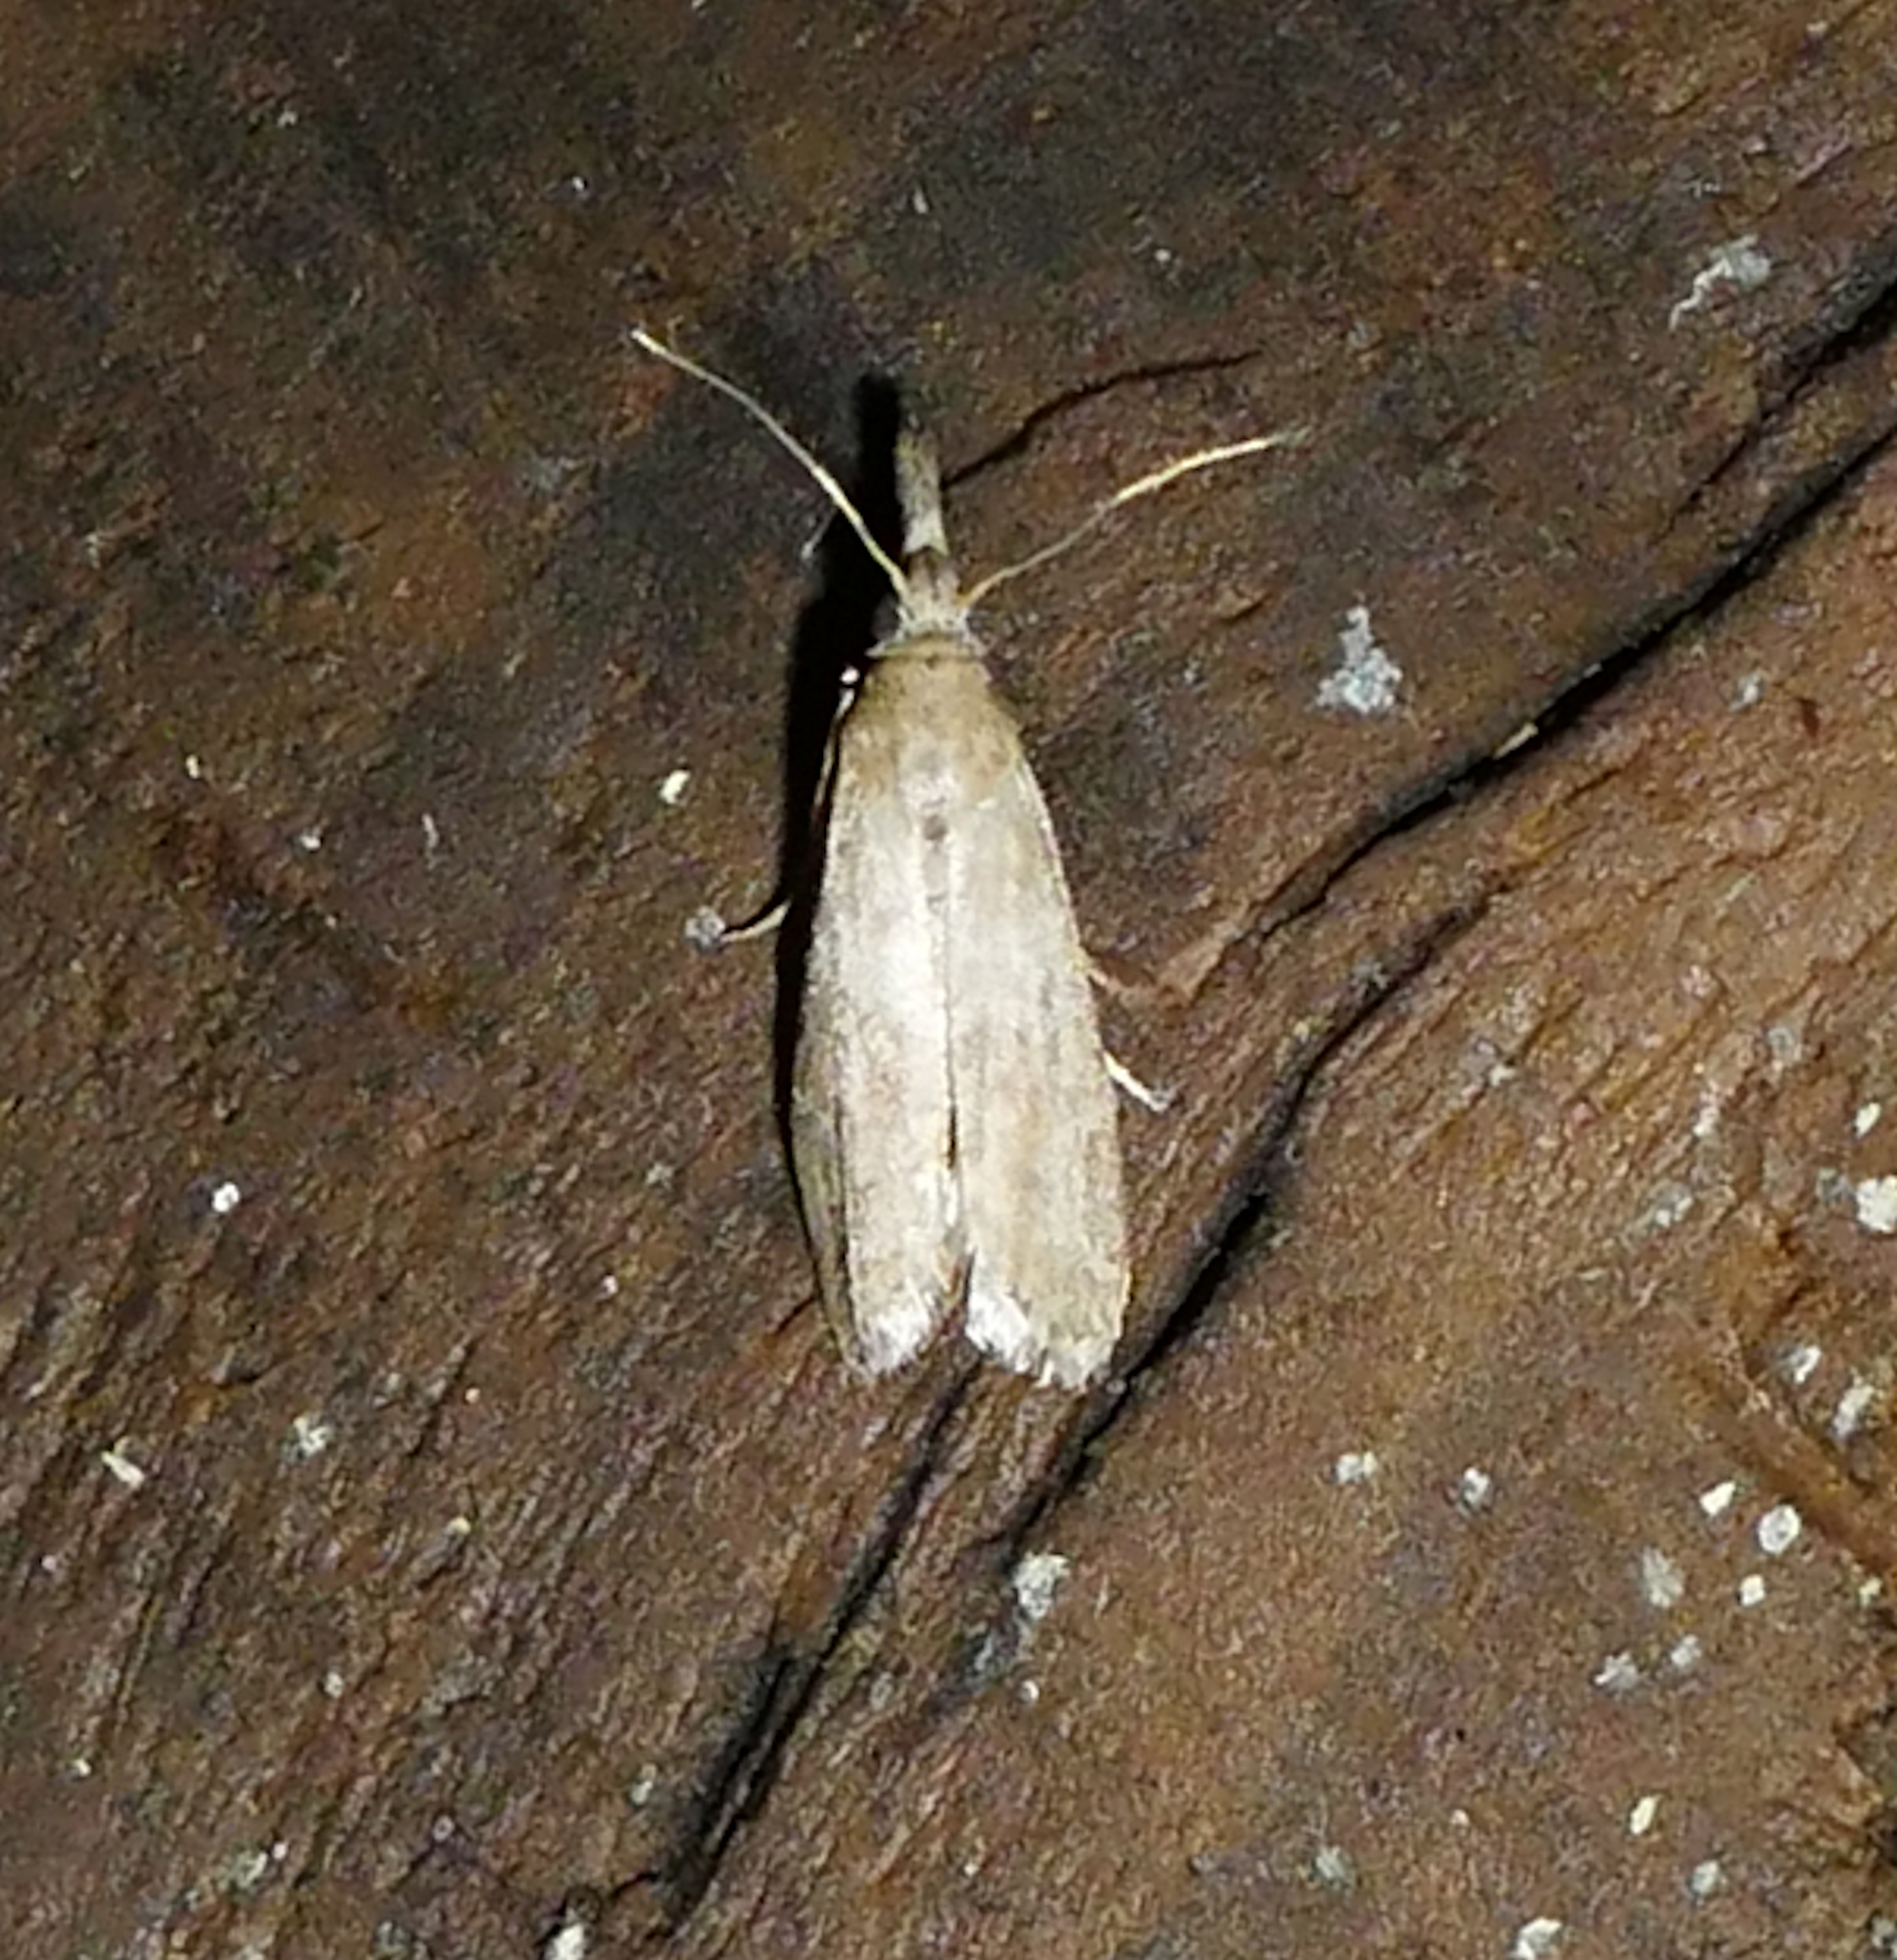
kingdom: Animalia
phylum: Arthropoda
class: Insecta
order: Lepidoptera
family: Pyralidae
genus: Macrorrhinia
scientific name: Macrorrhinia endonephele
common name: Alligator weed stemborer moth
